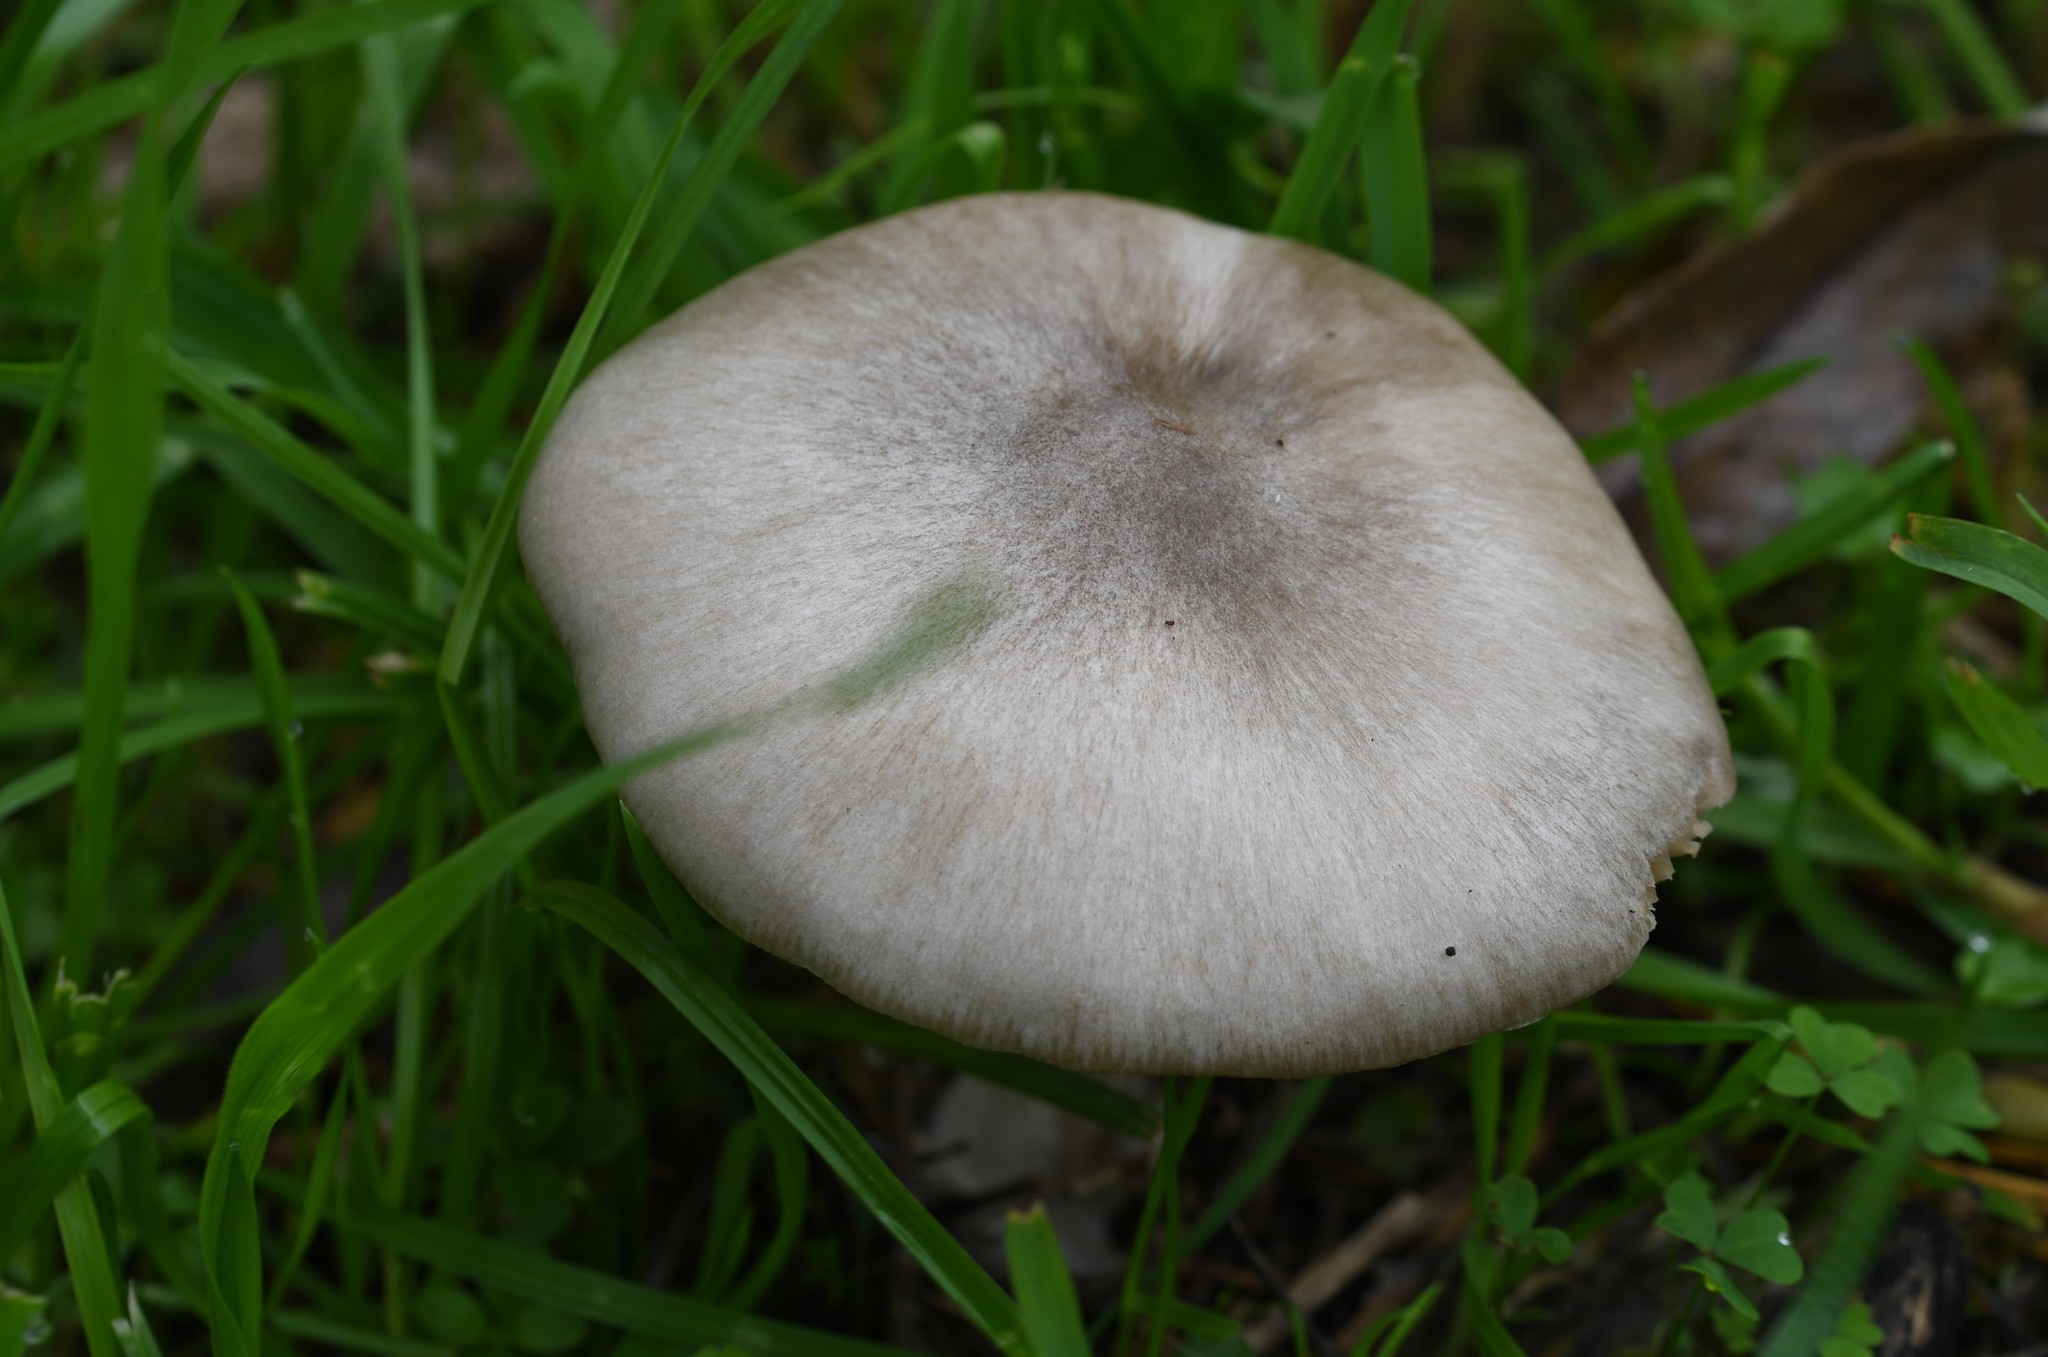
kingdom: Fungi
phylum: Basidiomycota
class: Agaricomycetes
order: Agaricales
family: Pluteaceae
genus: Volvopluteus
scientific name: Volvopluteus gloiocephalus
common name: Stubble rosegill
